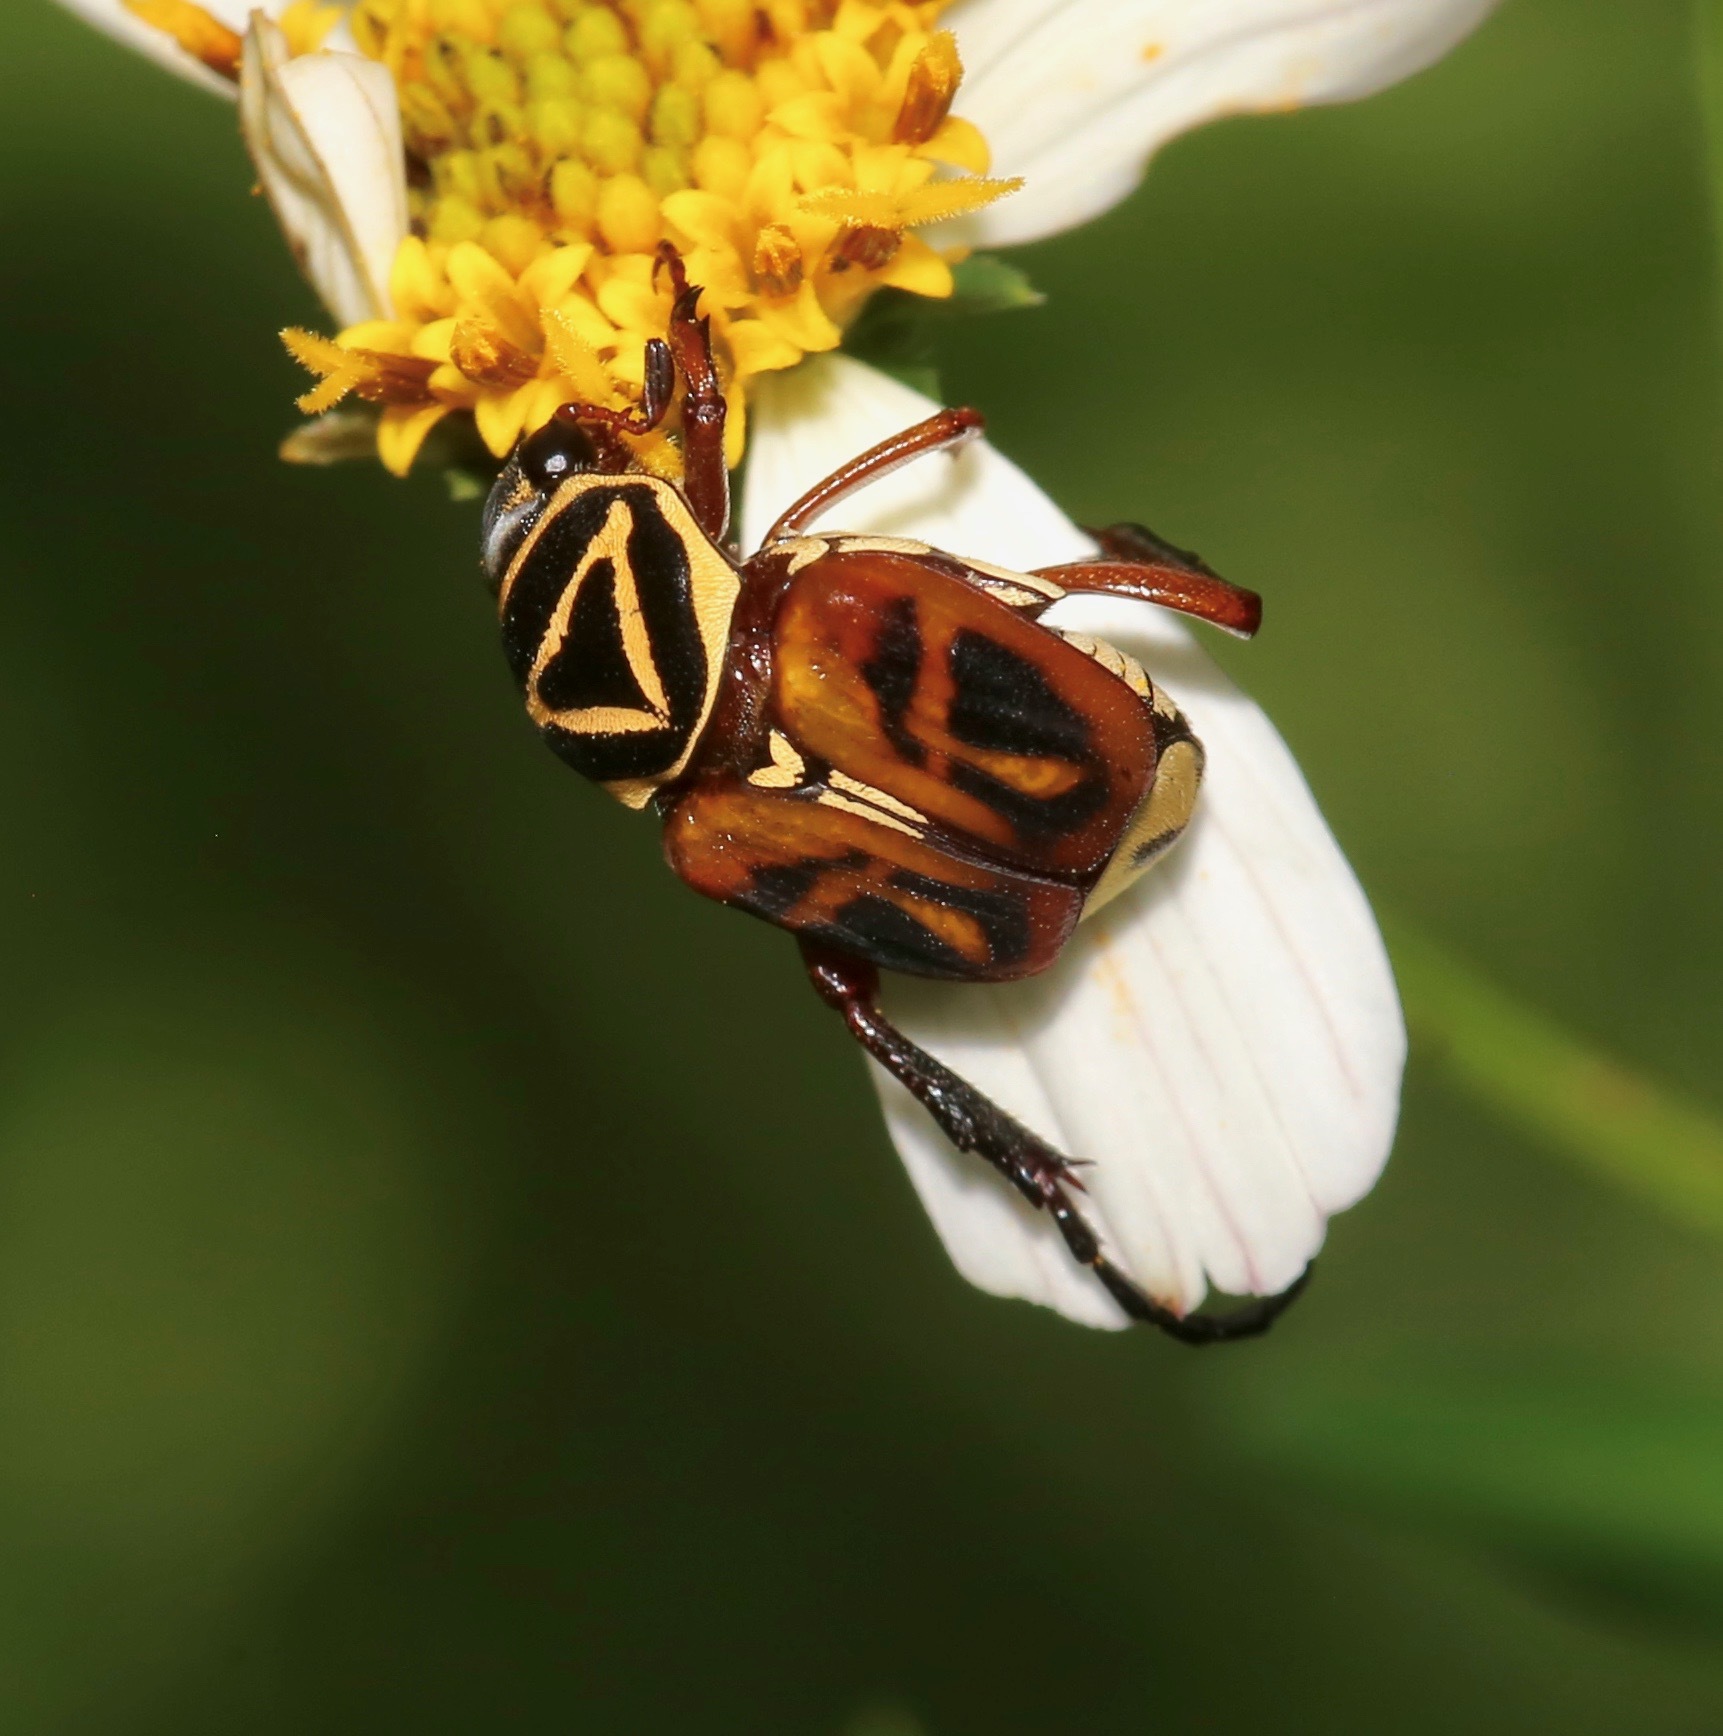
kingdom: Animalia
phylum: Arthropoda
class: Insecta
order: Coleoptera
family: Scarabaeidae
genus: Trigonopeltastes
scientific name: Trigonopeltastes delta
